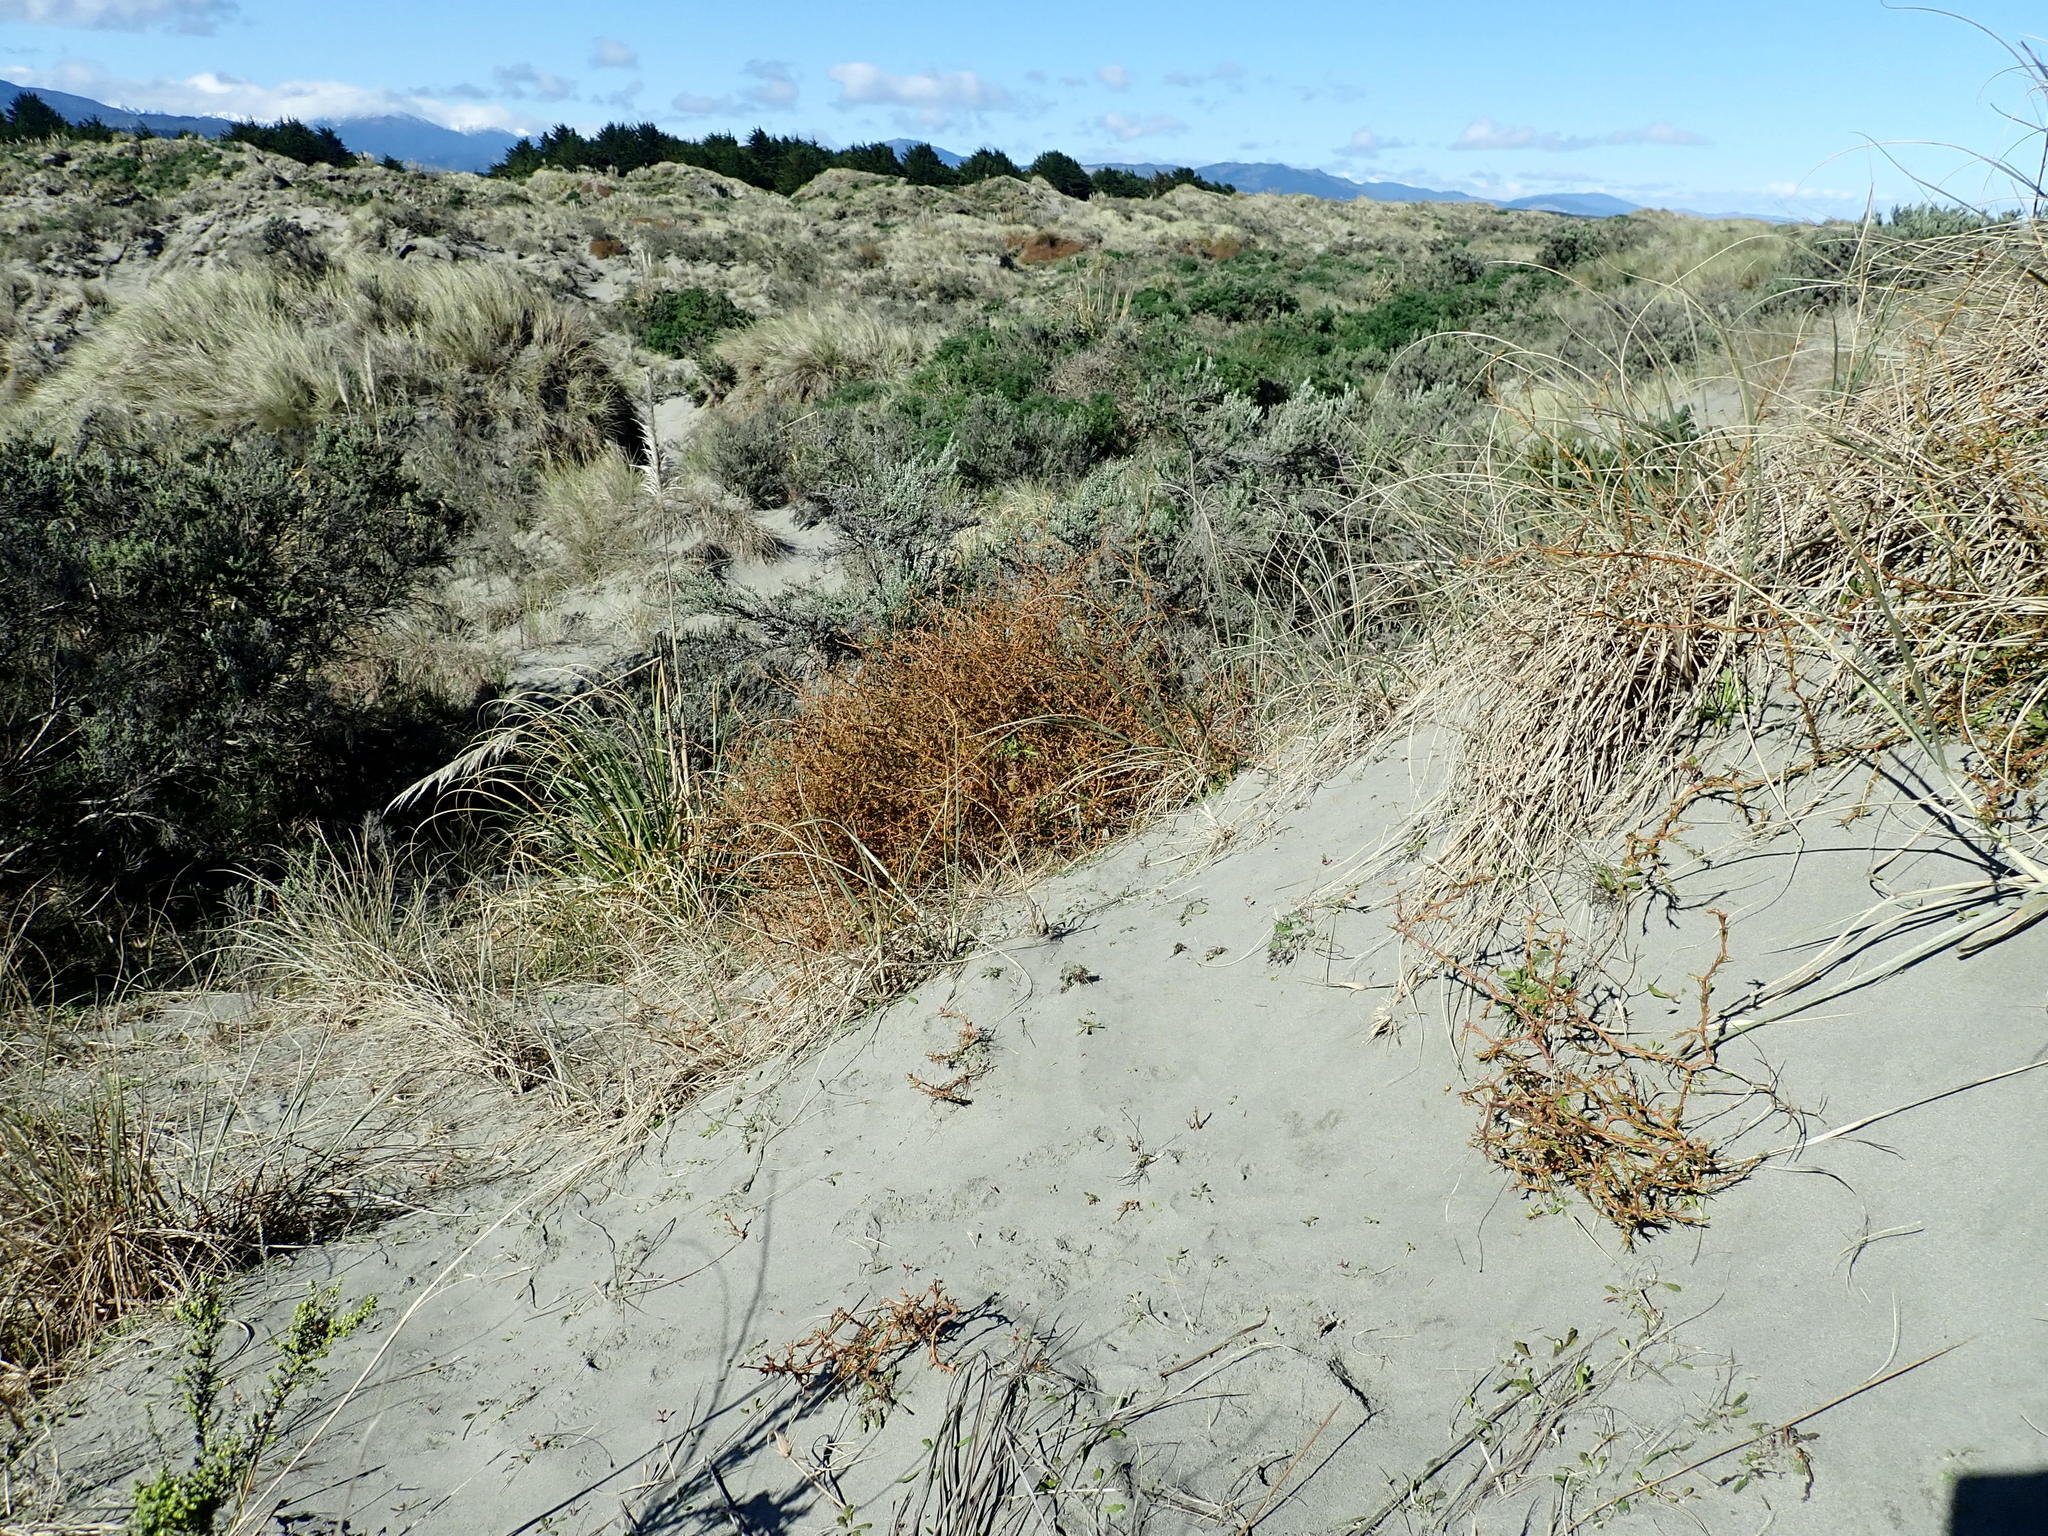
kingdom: Plantae
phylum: Tracheophyta
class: Magnoliopsida
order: Gentianales
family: Rubiaceae
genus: Coprosma
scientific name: Coprosma acerosa
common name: Sand coprosma
